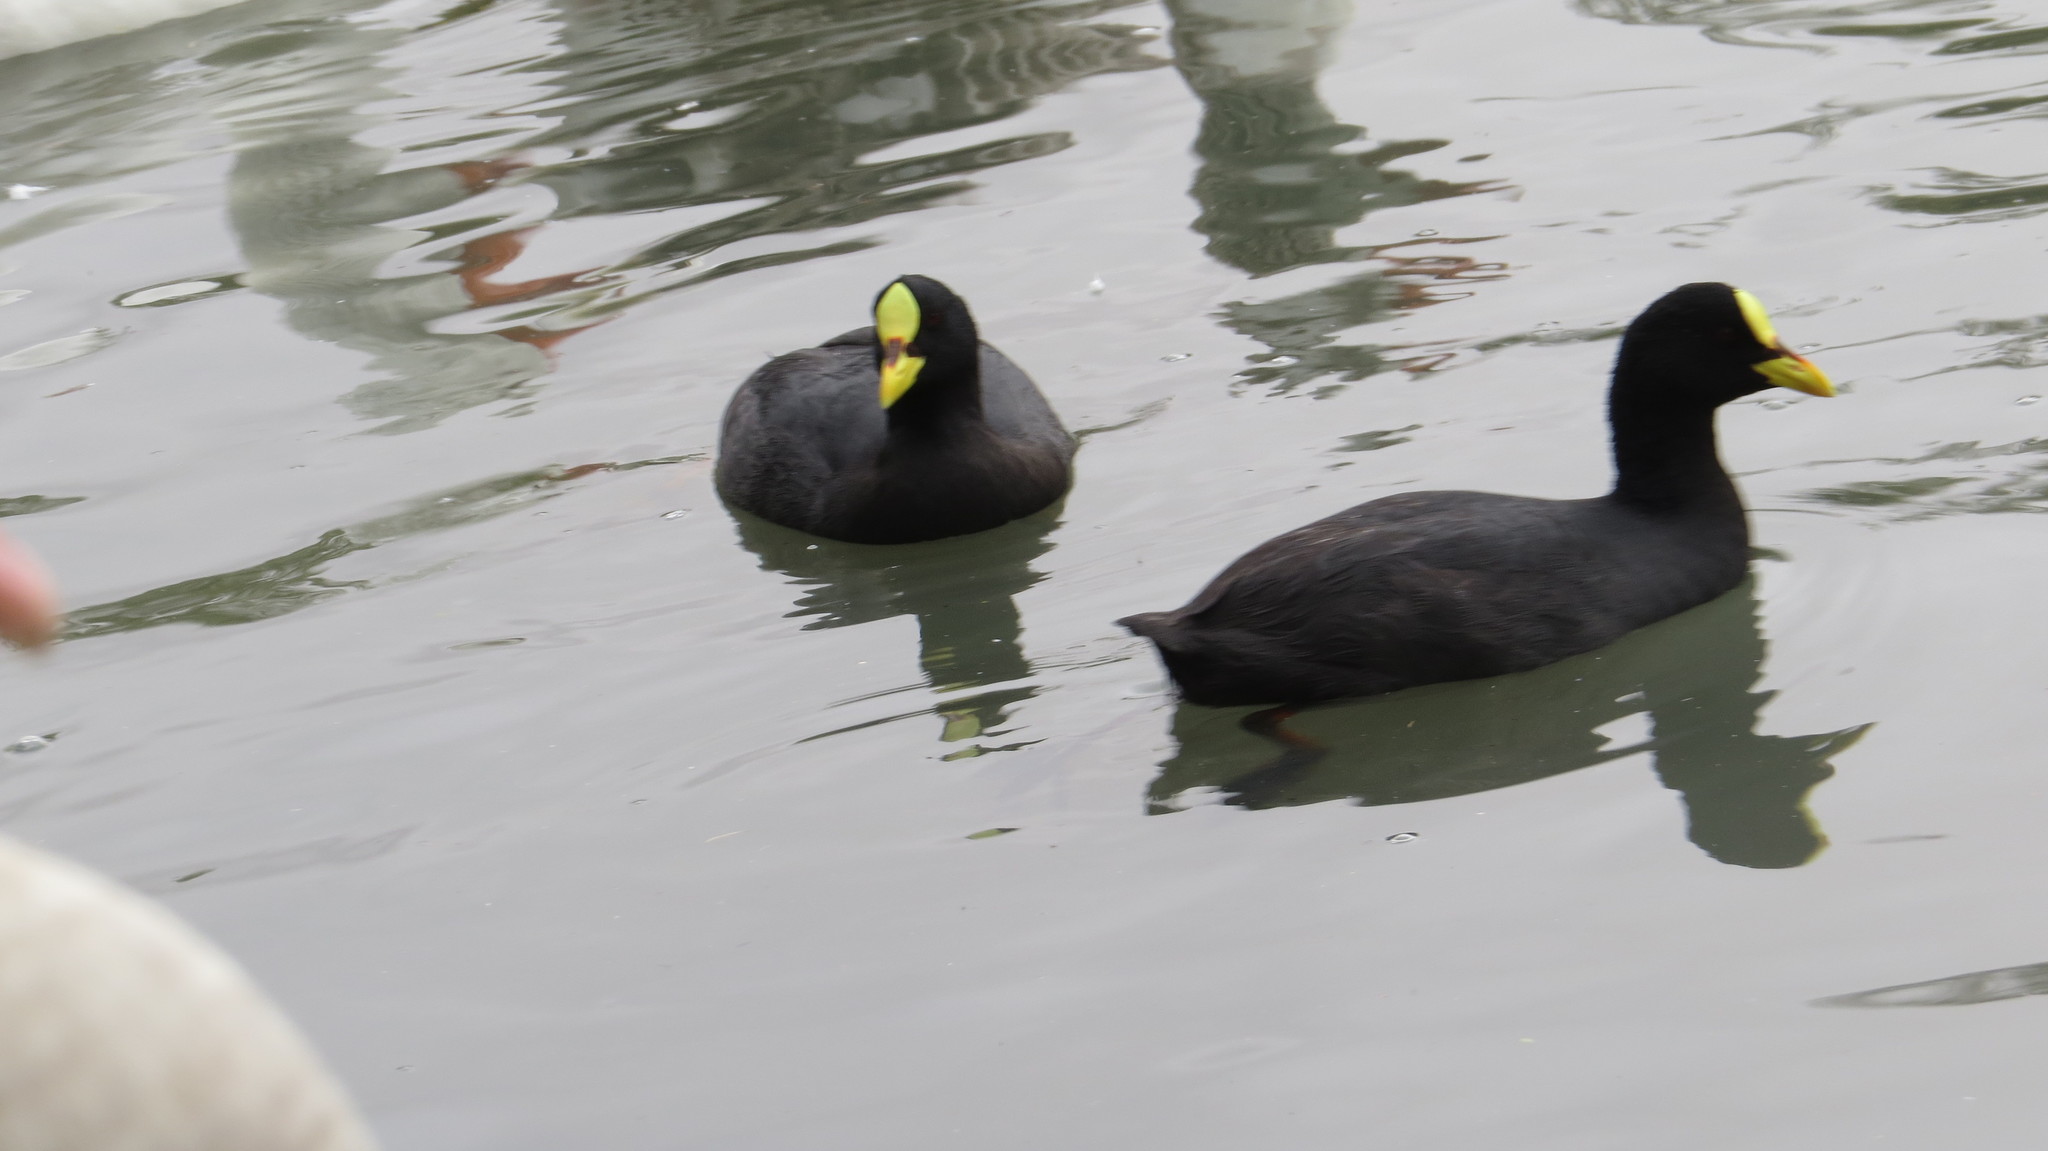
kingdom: Animalia
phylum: Chordata
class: Aves
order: Gruiformes
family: Rallidae
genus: Fulica
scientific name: Fulica armillata
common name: Red-gartered coot
